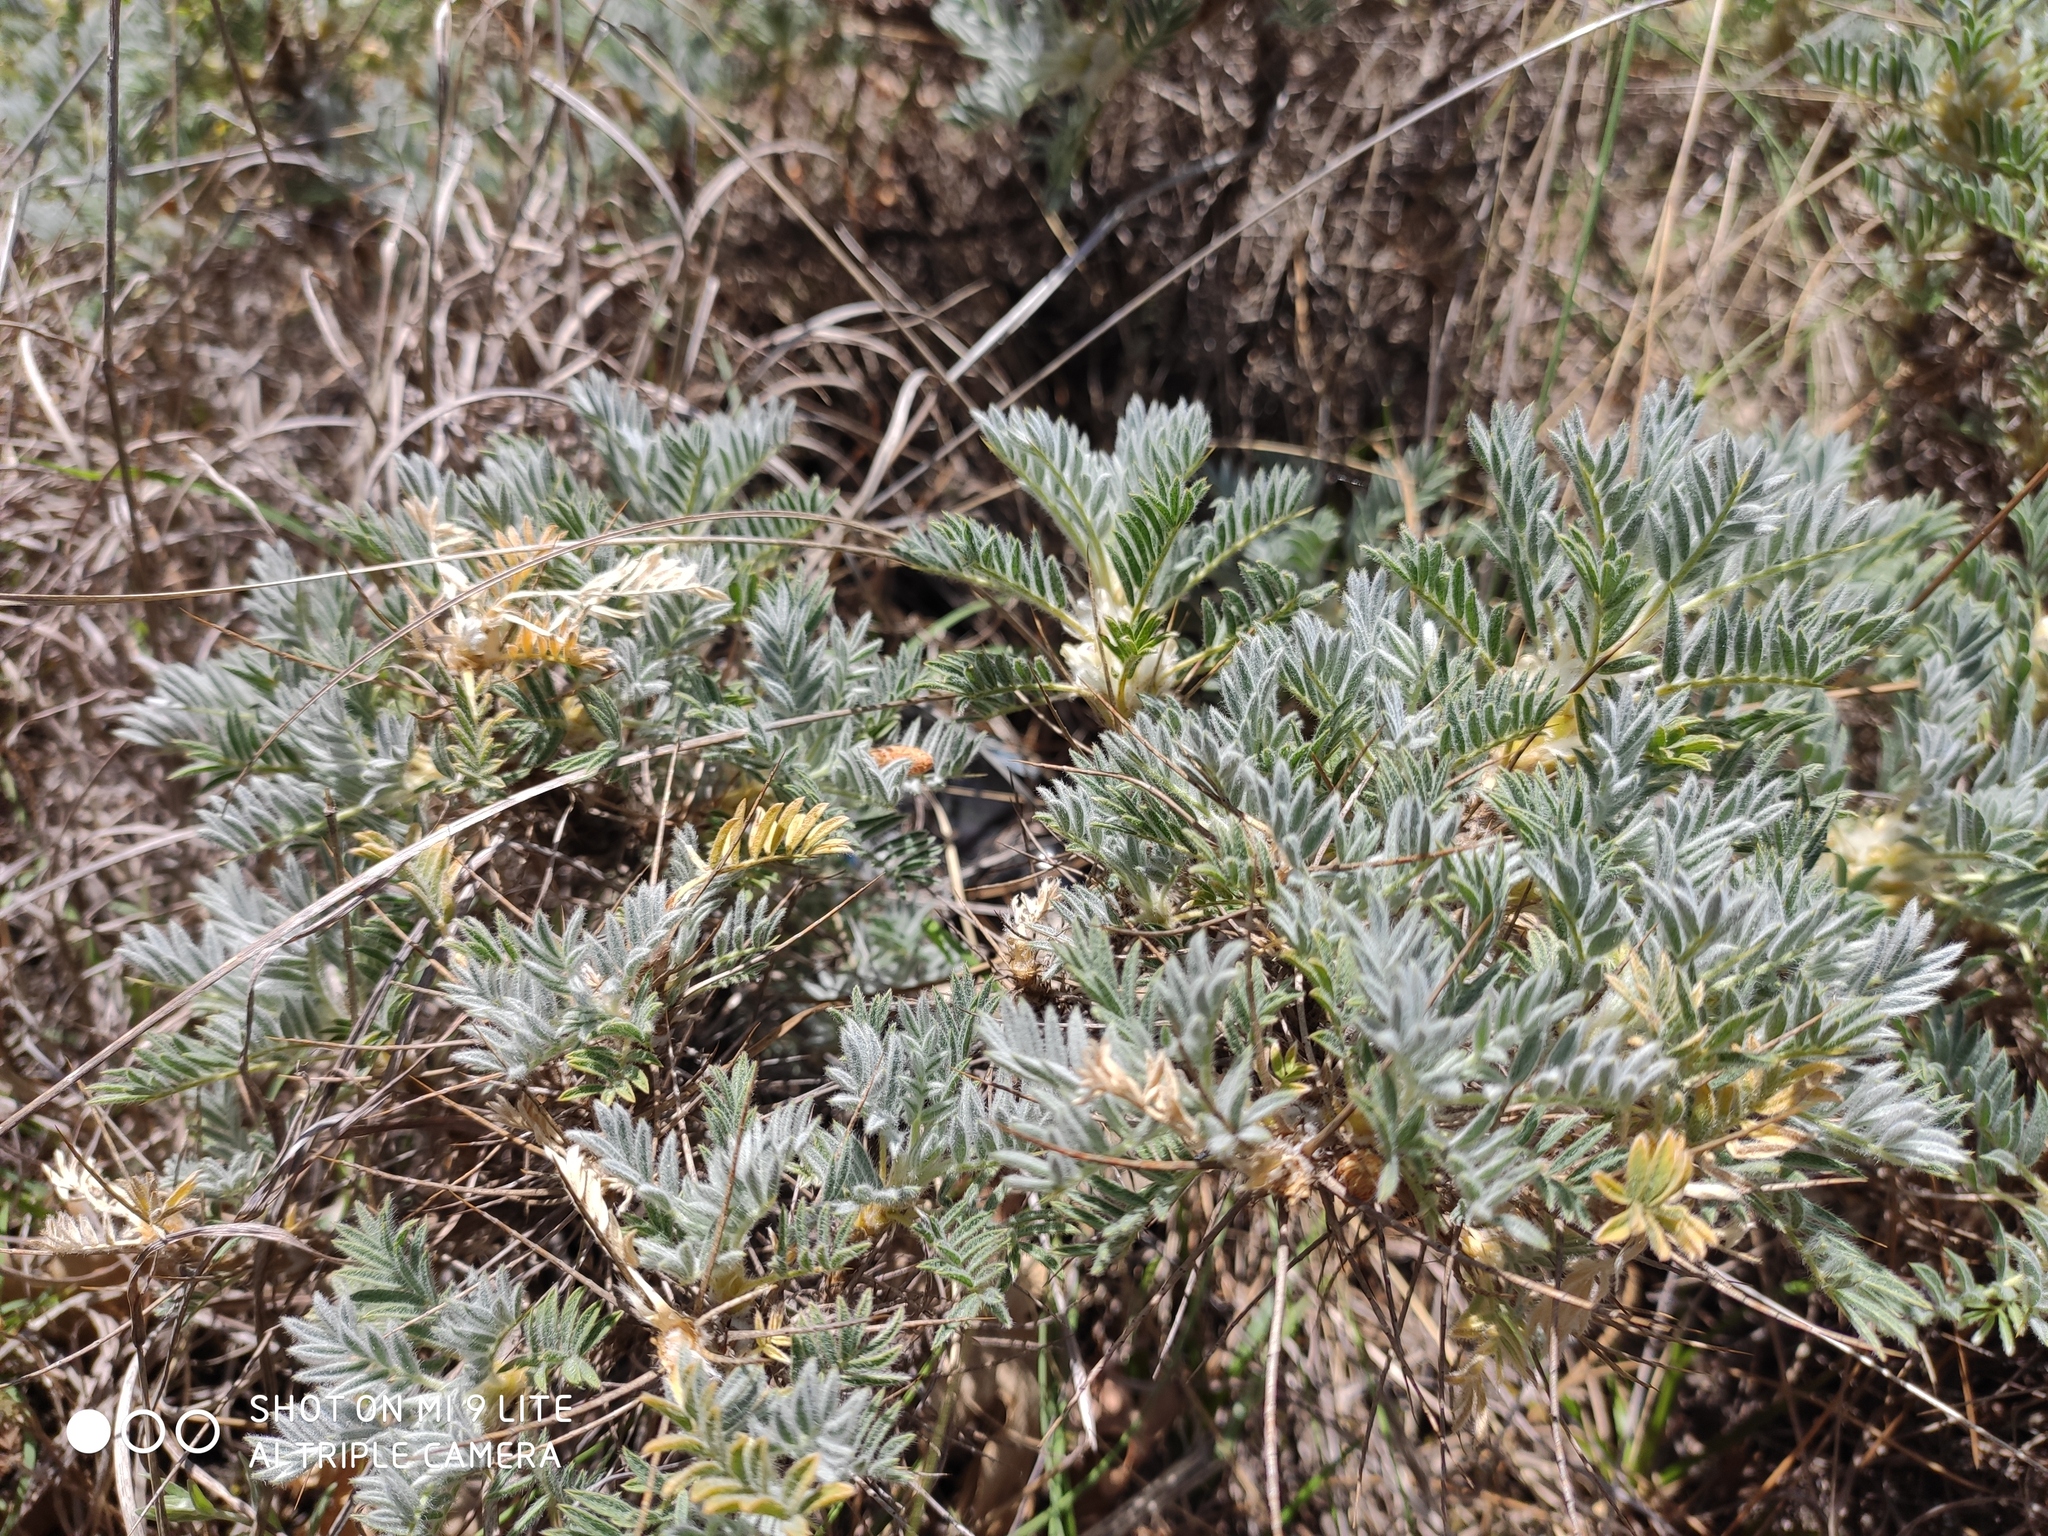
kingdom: Plantae
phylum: Tracheophyta
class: Magnoliopsida
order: Fabales
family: Fabaceae
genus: Astragalus
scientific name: Astragalus arnacanthoides
